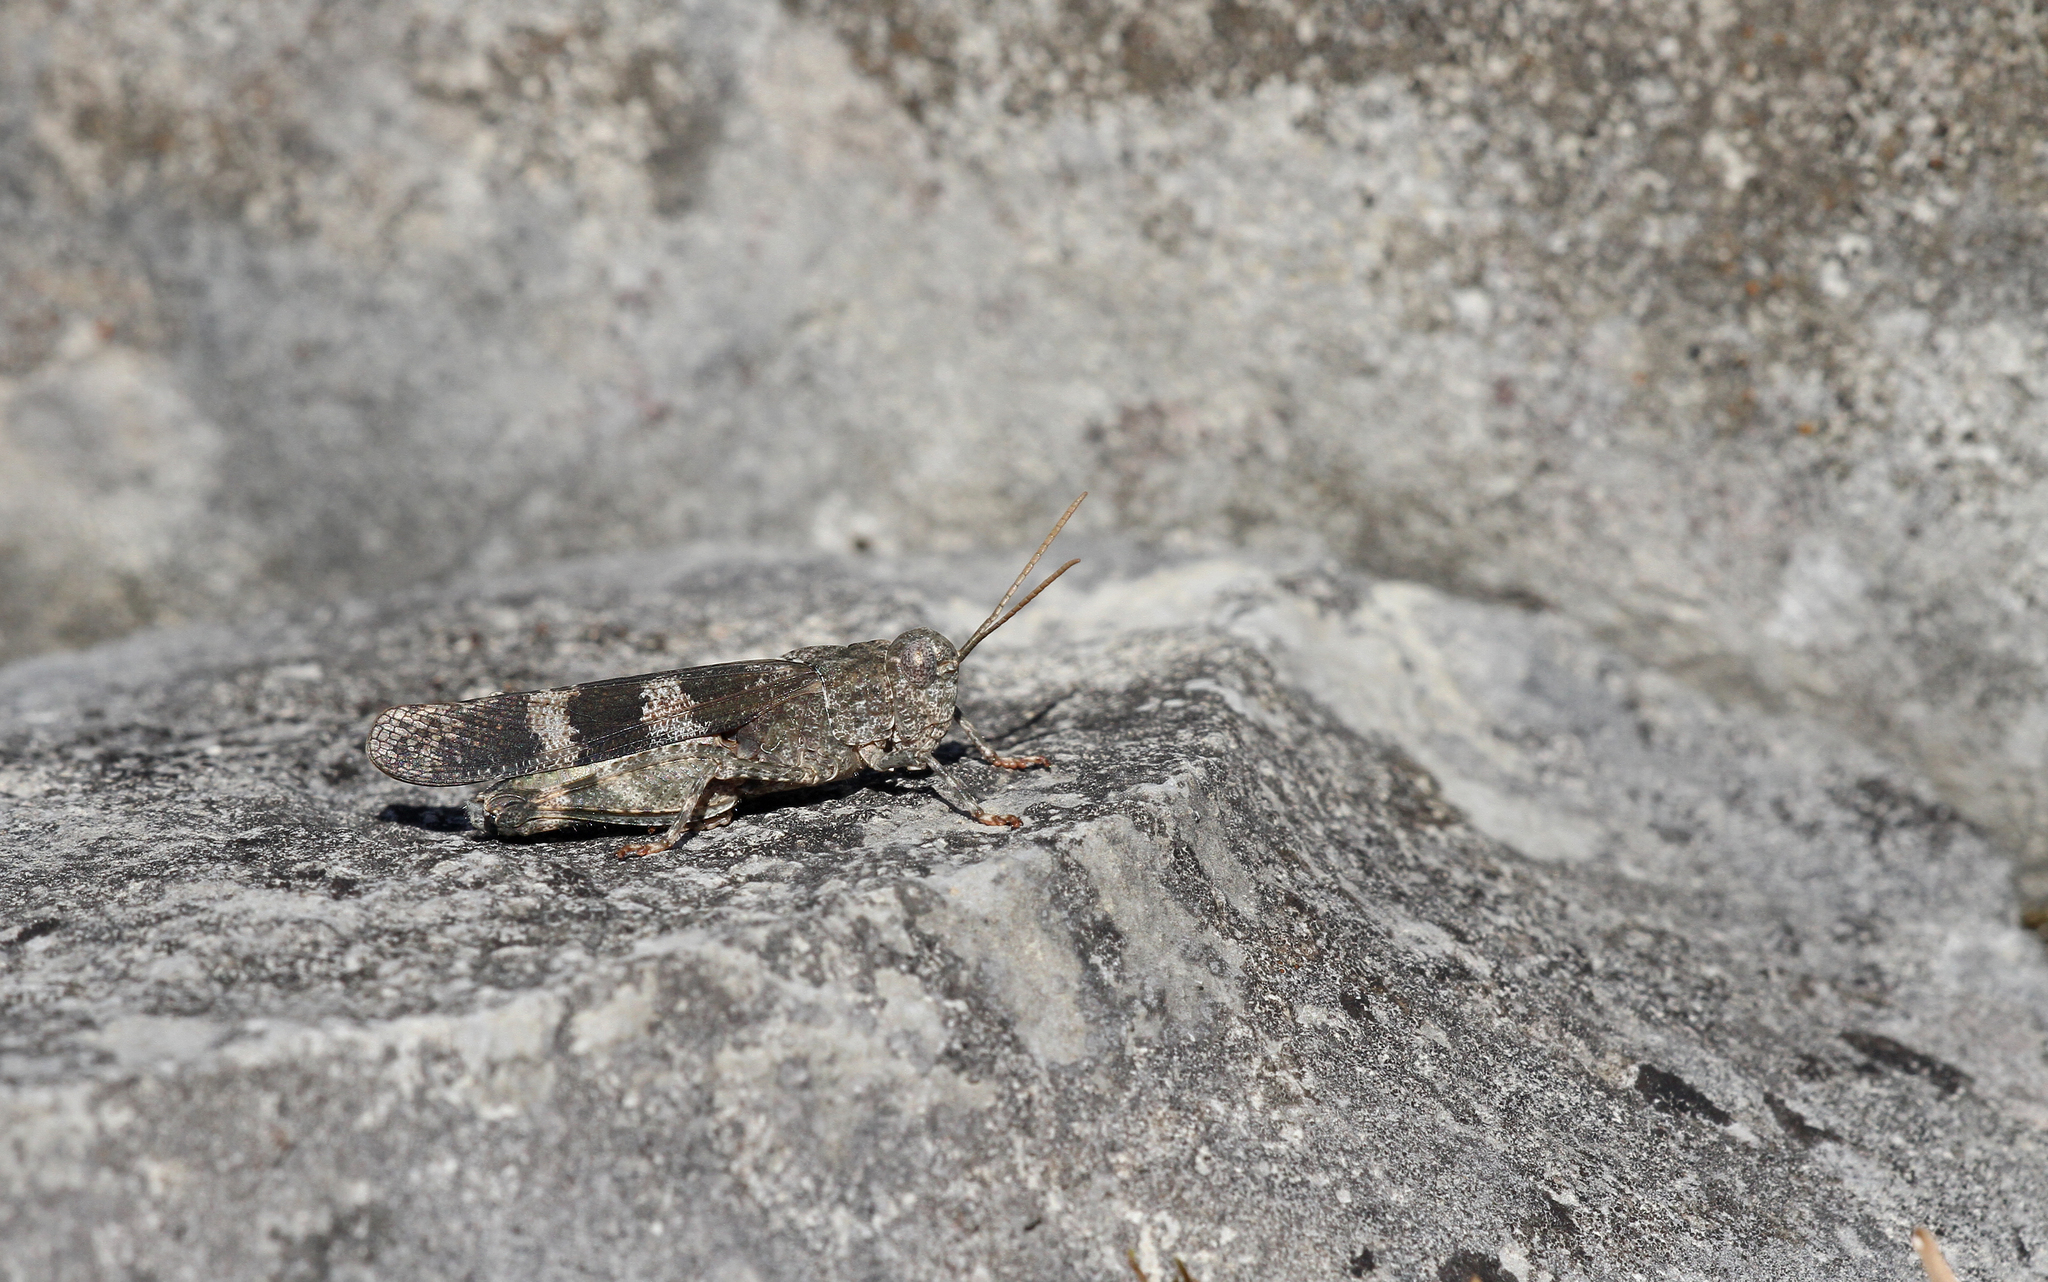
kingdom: Animalia
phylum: Arthropoda
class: Insecta
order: Orthoptera
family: Acrididae
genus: Oedipoda
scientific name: Oedipoda germanica
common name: Red band-winged grasshopper
